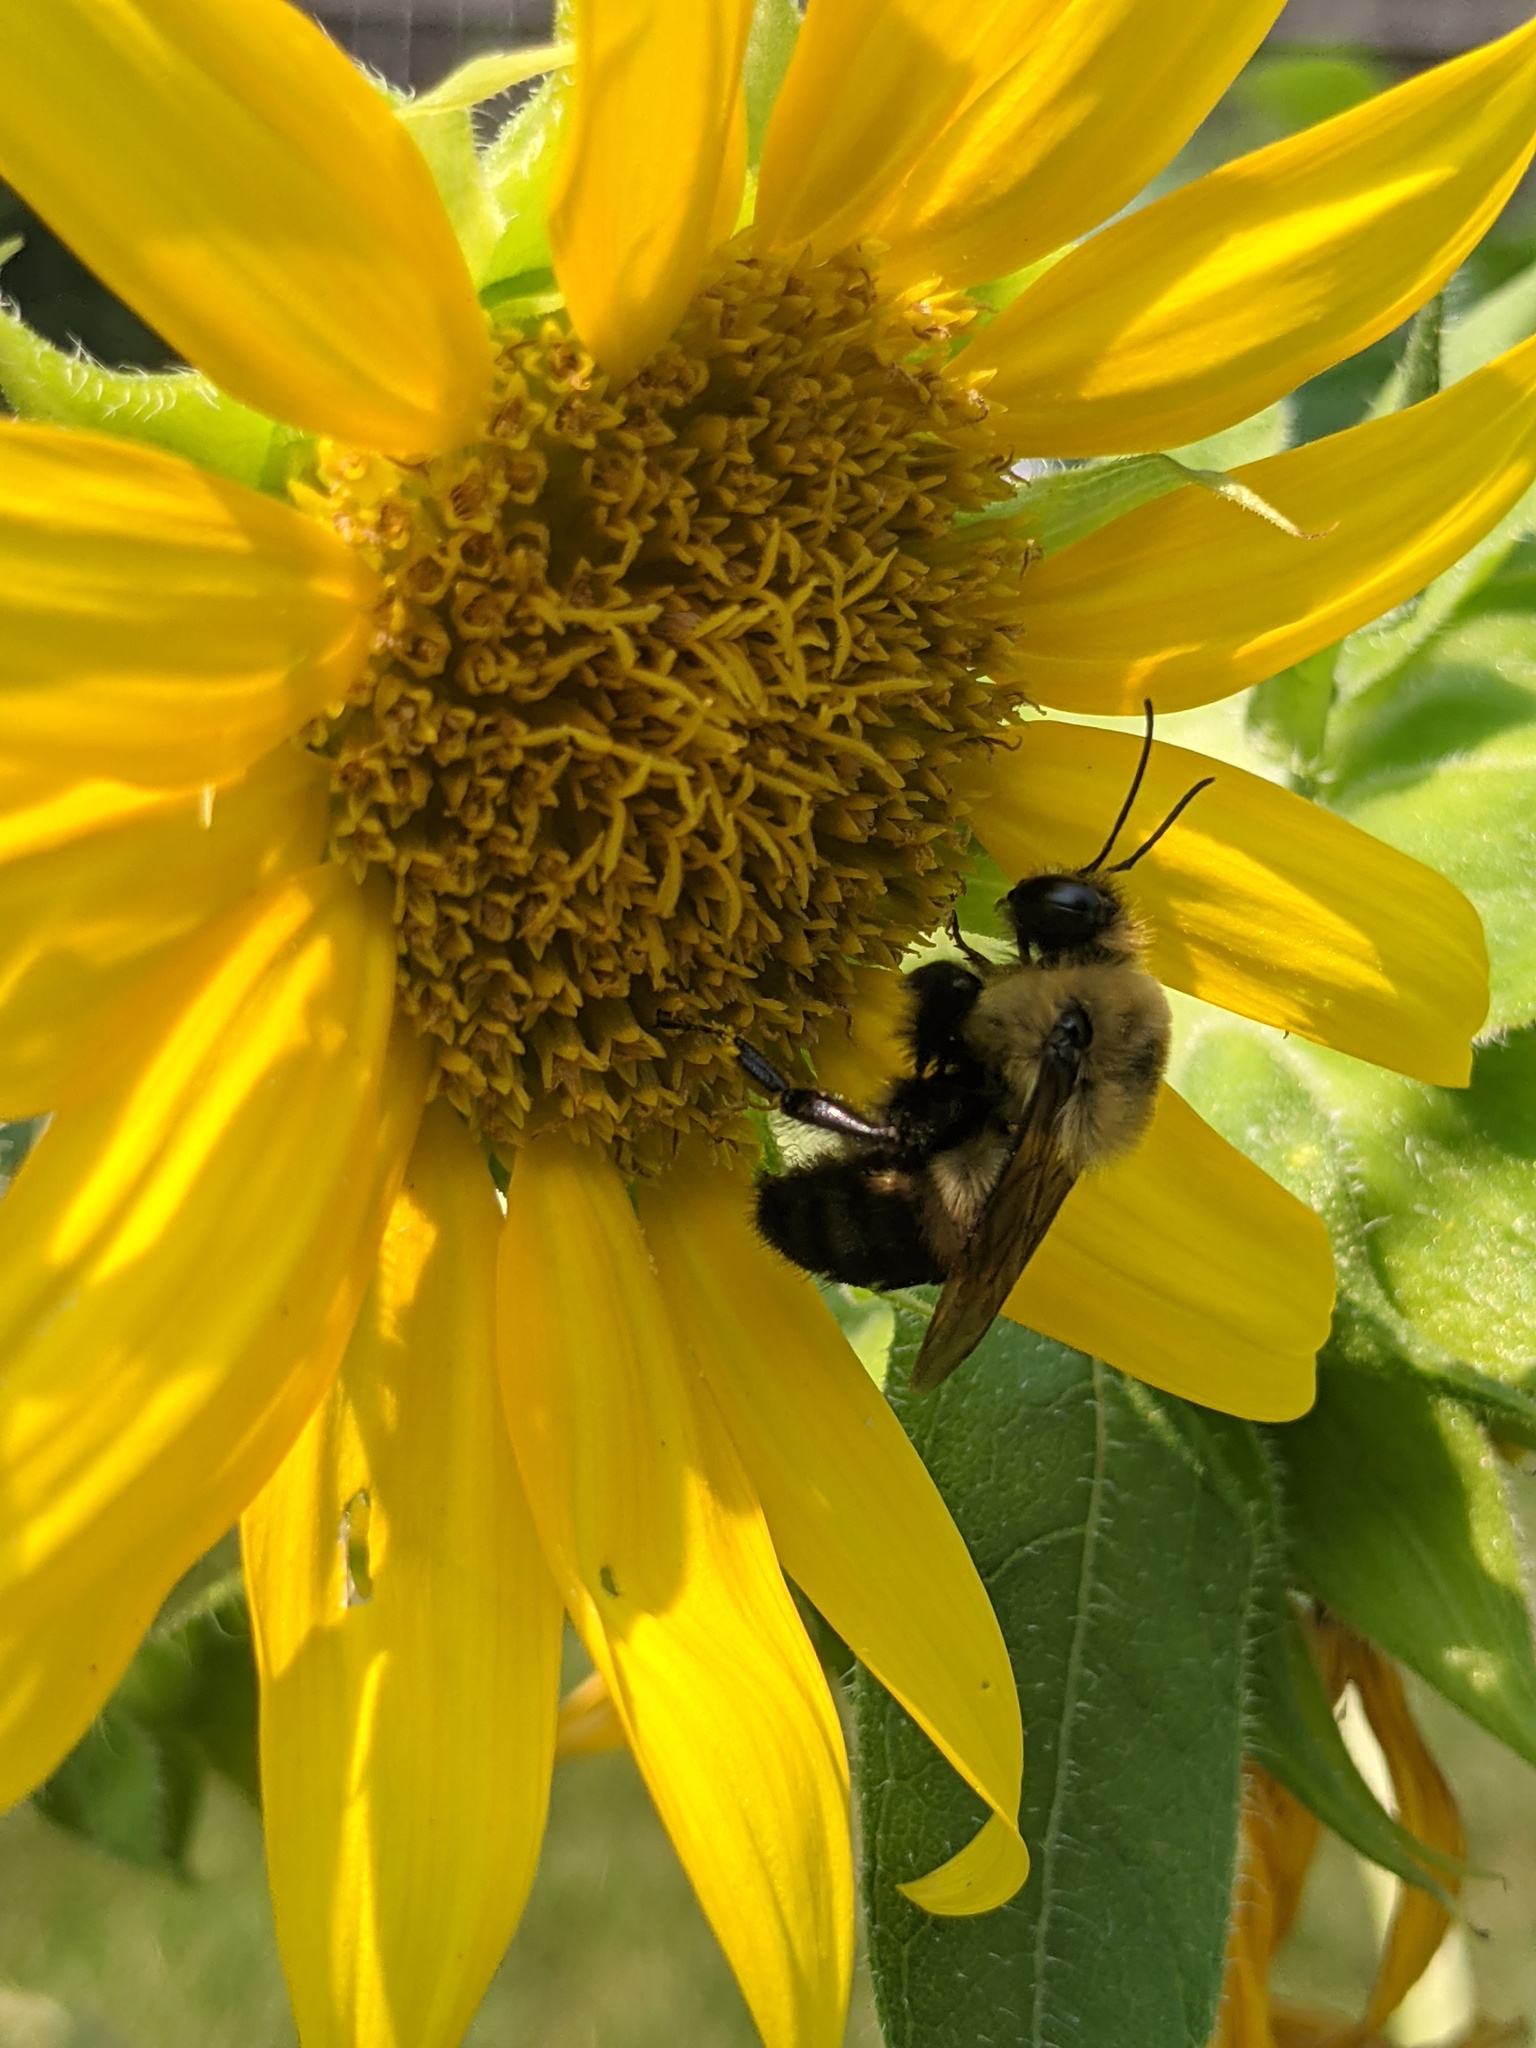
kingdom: Animalia
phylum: Arthropoda
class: Insecta
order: Hymenoptera
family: Apidae
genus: Bombus
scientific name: Bombus griseocollis
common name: Brown-belted bumble bee
